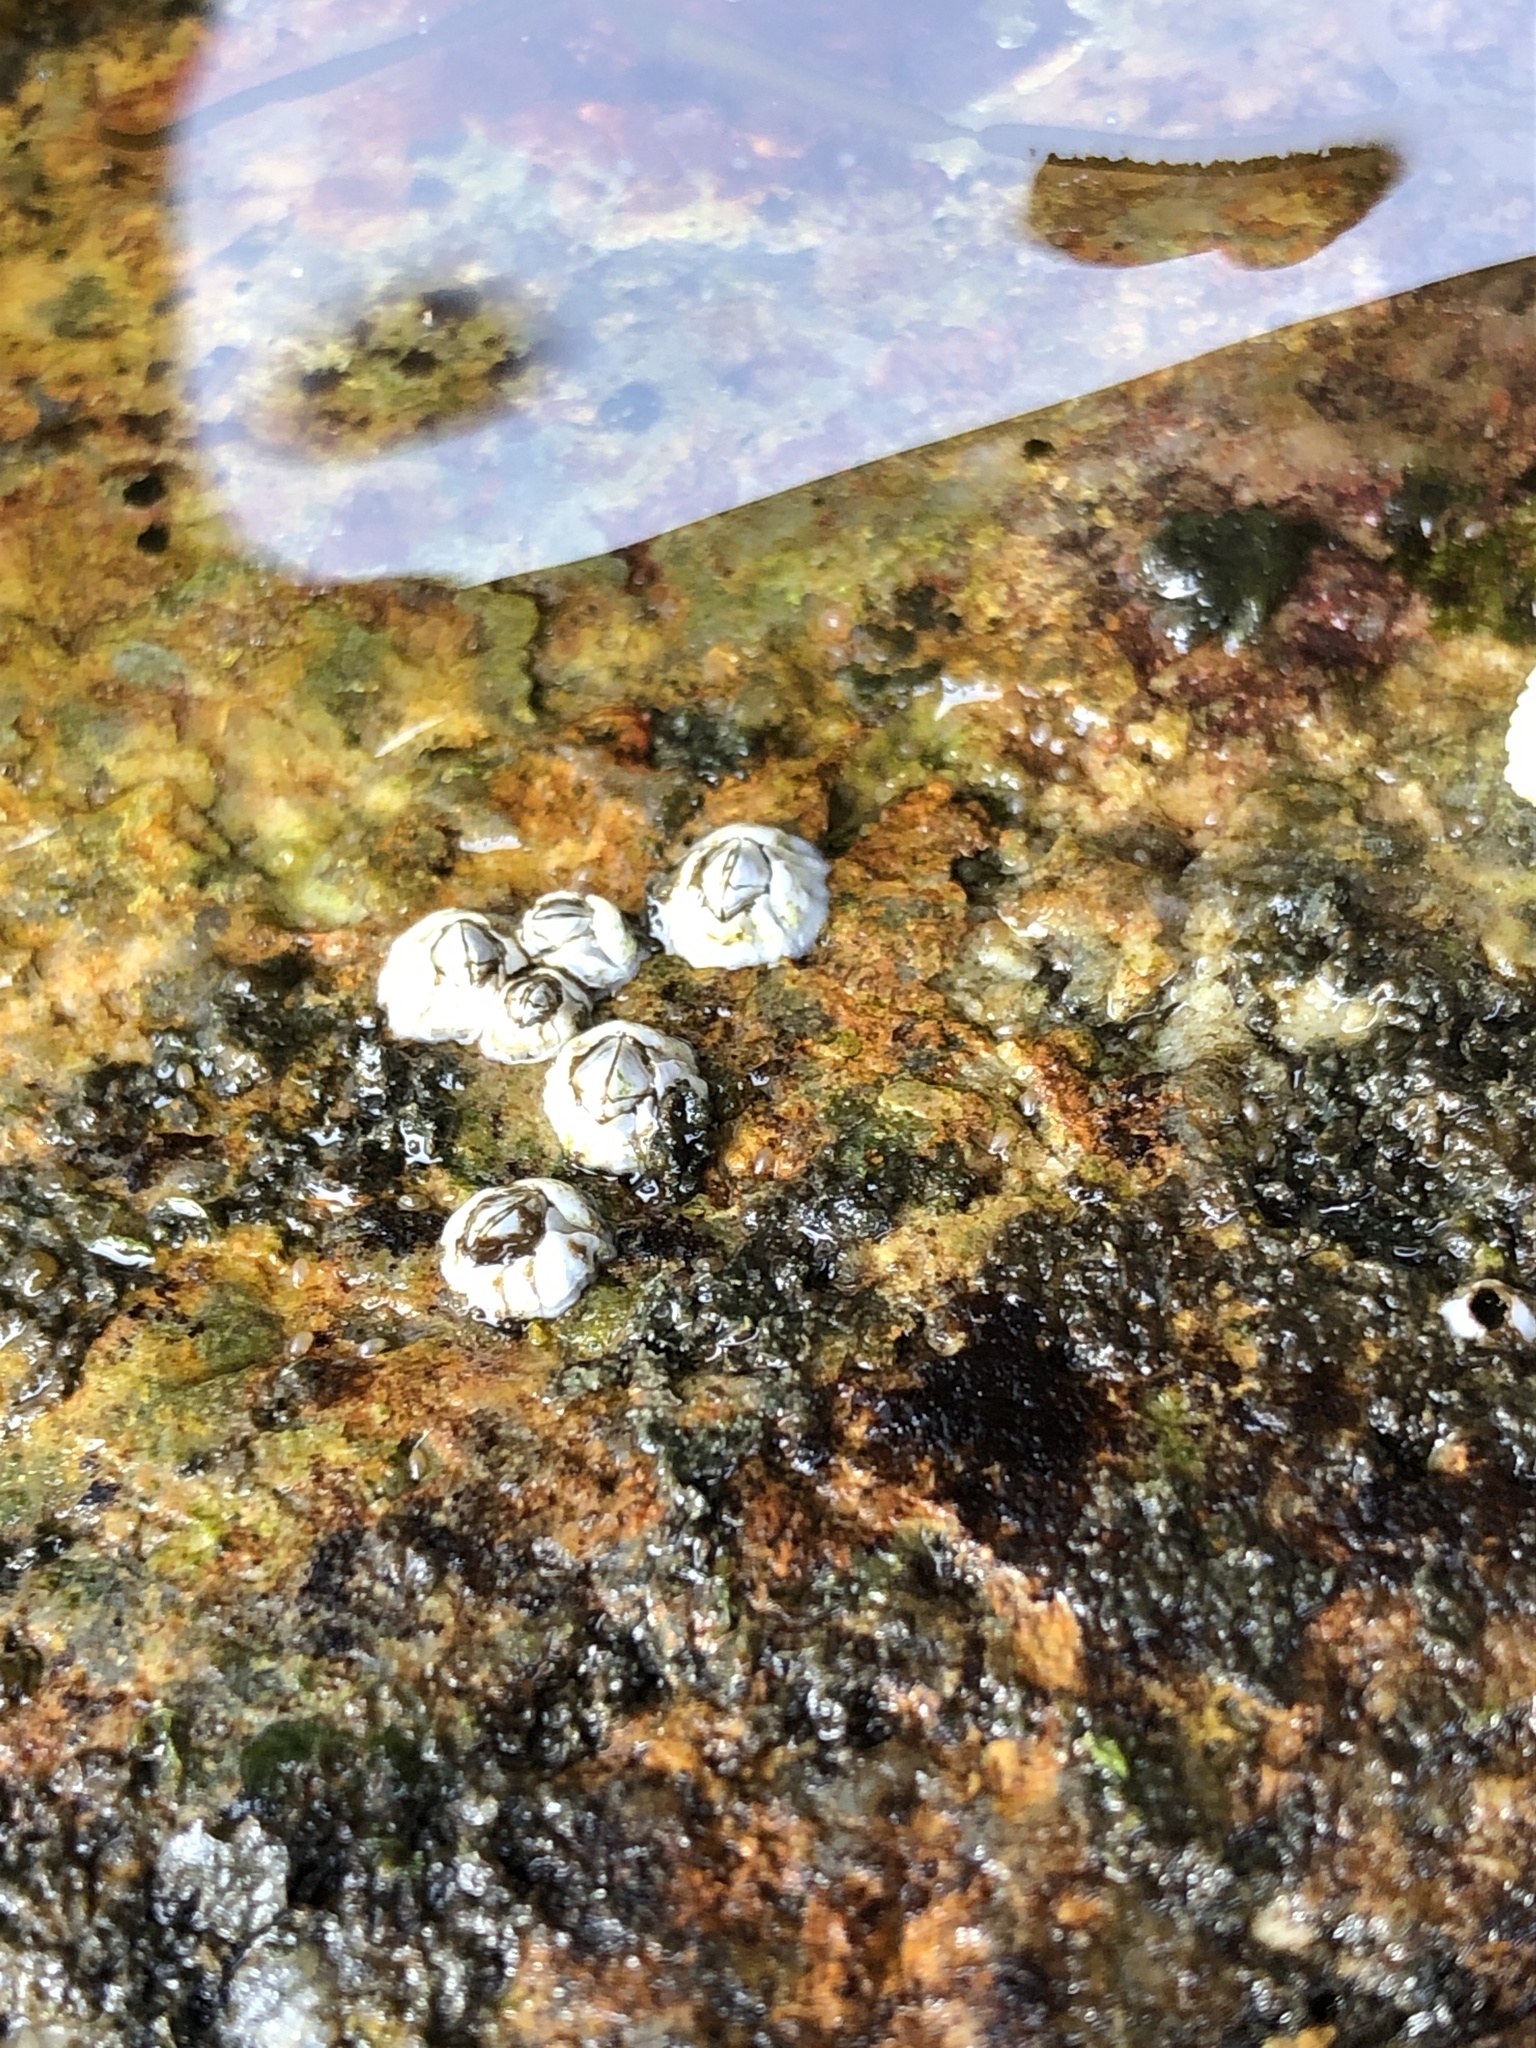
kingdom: Animalia
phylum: Arthropoda
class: Maxillopoda
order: Sessilia
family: Archaeobalanidae
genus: Semibalanus
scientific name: Semibalanus balanoides
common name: Acorn barnacle
